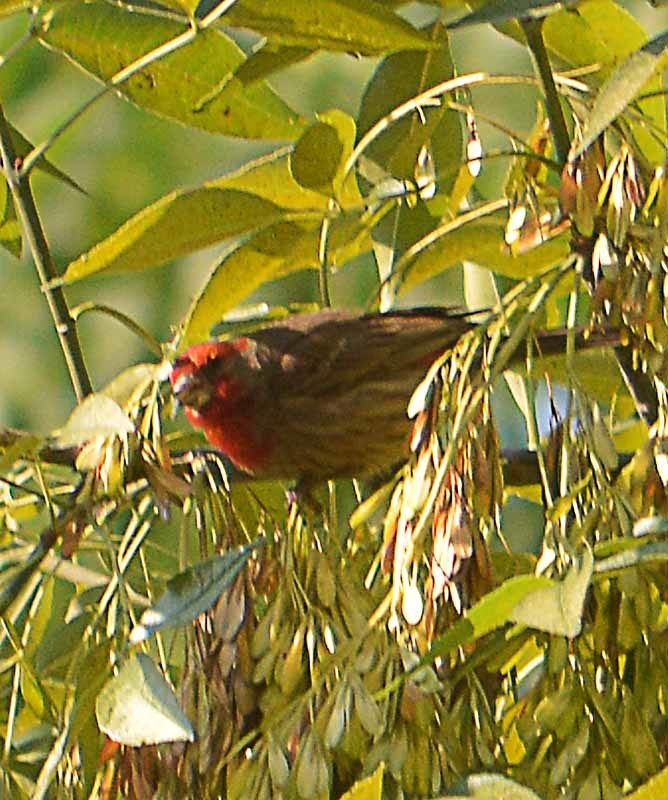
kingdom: Animalia
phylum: Chordata
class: Aves
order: Passeriformes
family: Fringillidae
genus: Haemorhous
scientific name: Haemorhous mexicanus
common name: House finch
